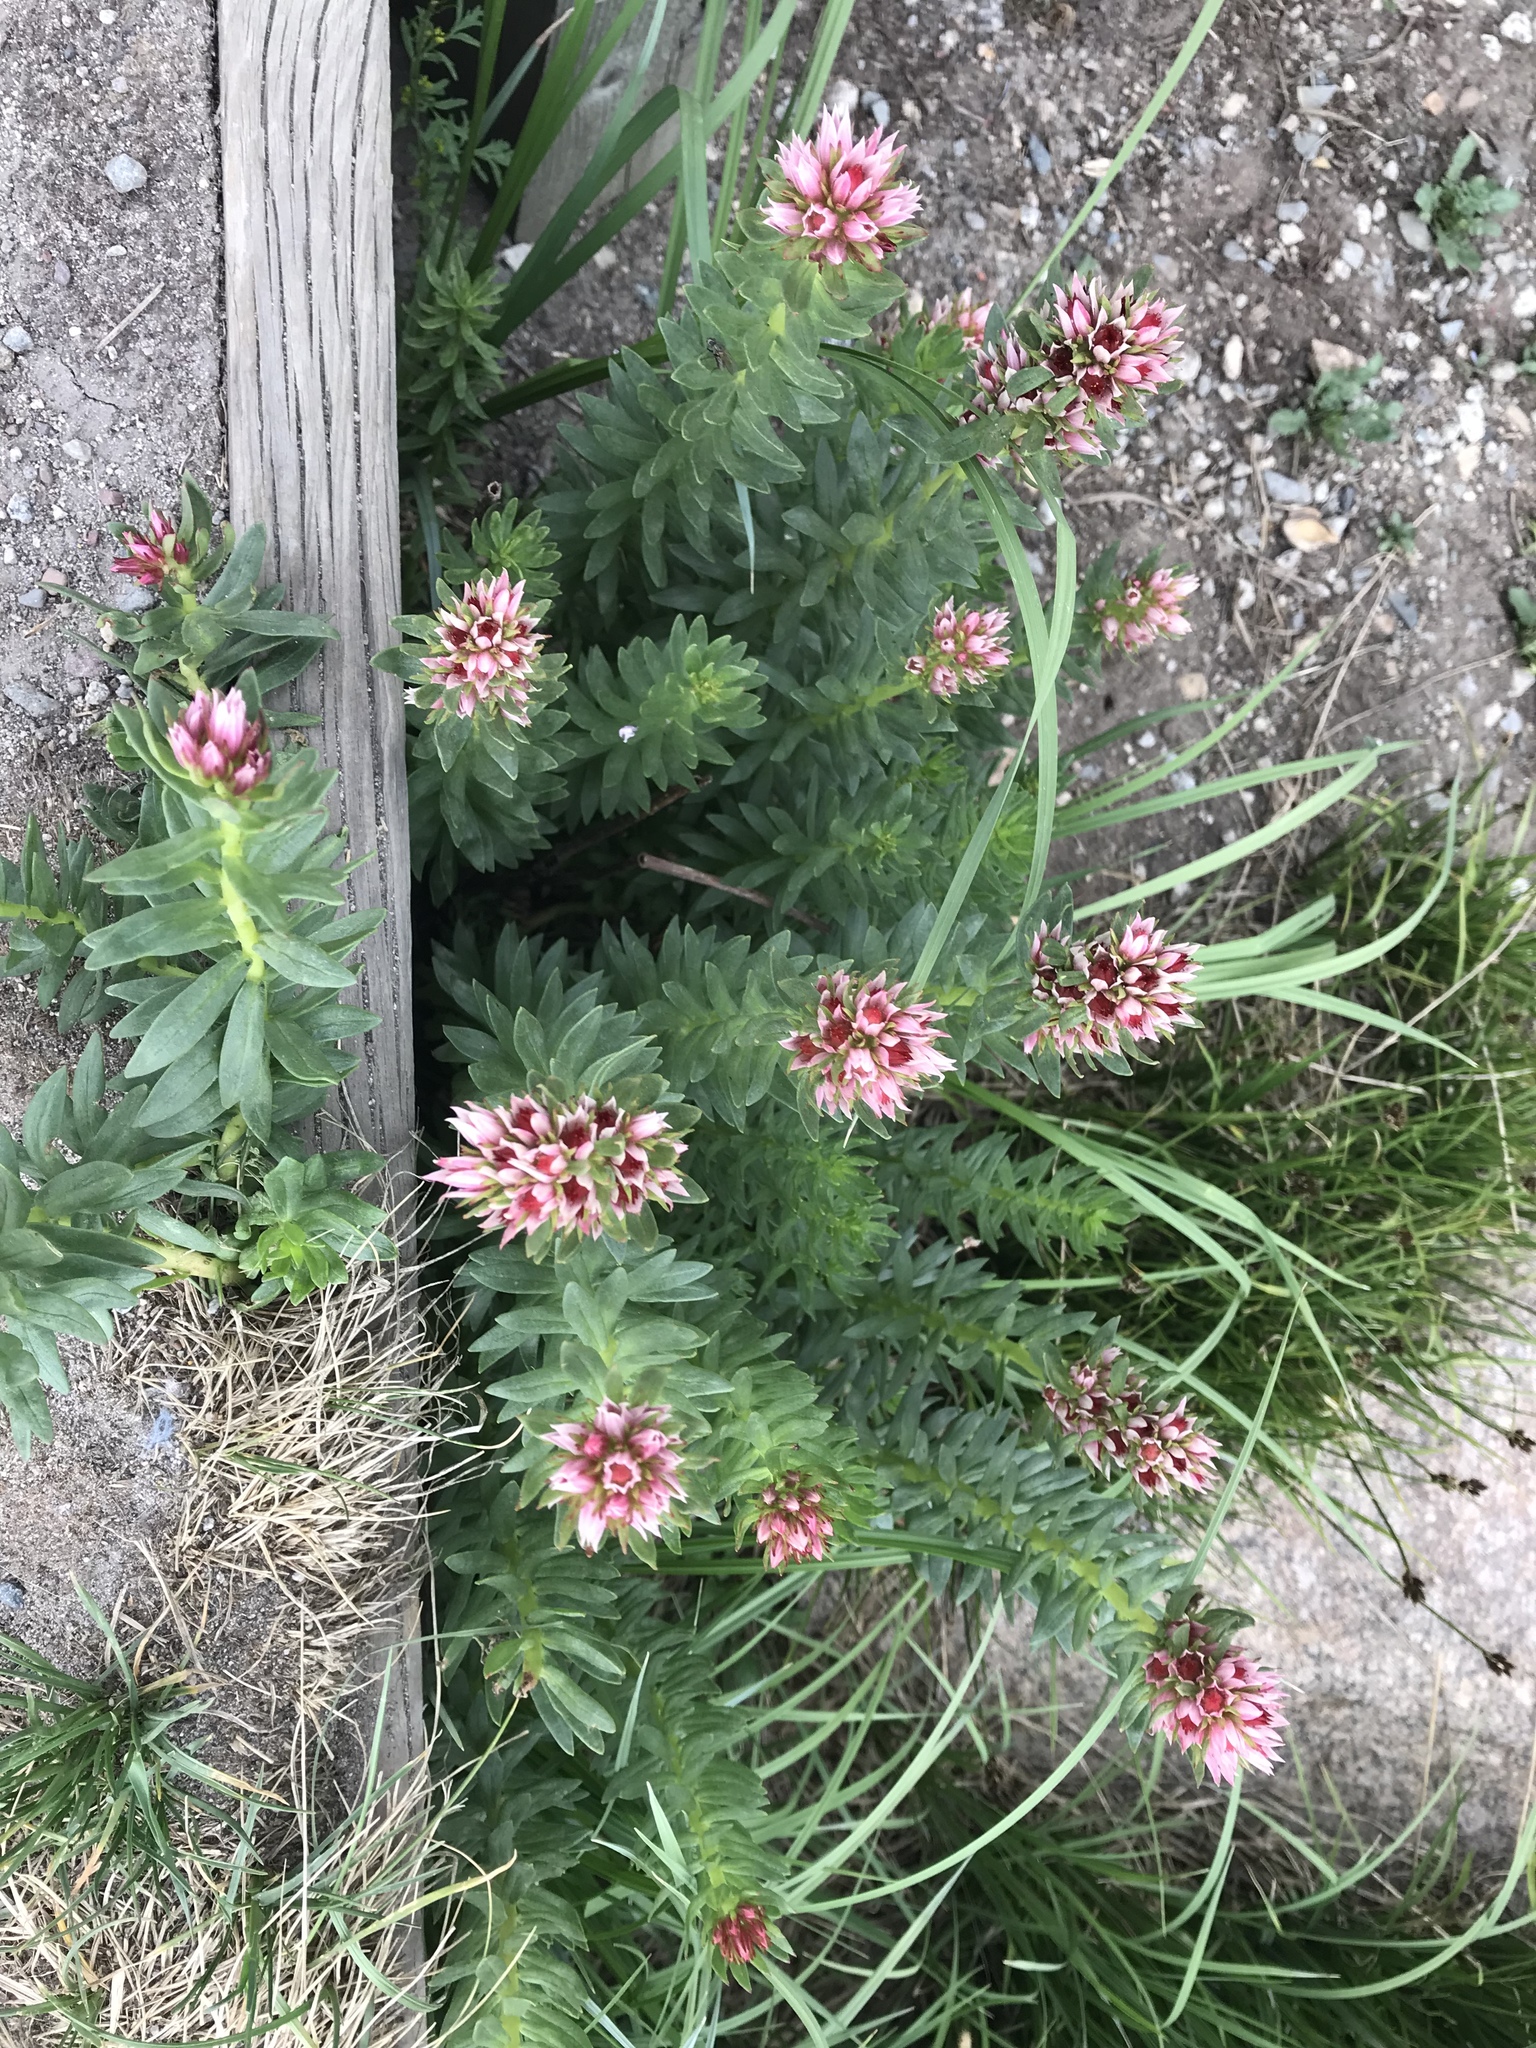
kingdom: Plantae
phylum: Tracheophyta
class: Magnoliopsida
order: Saxifragales
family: Crassulaceae
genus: Rhodiola
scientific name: Rhodiola rhodantha
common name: Red orpine
